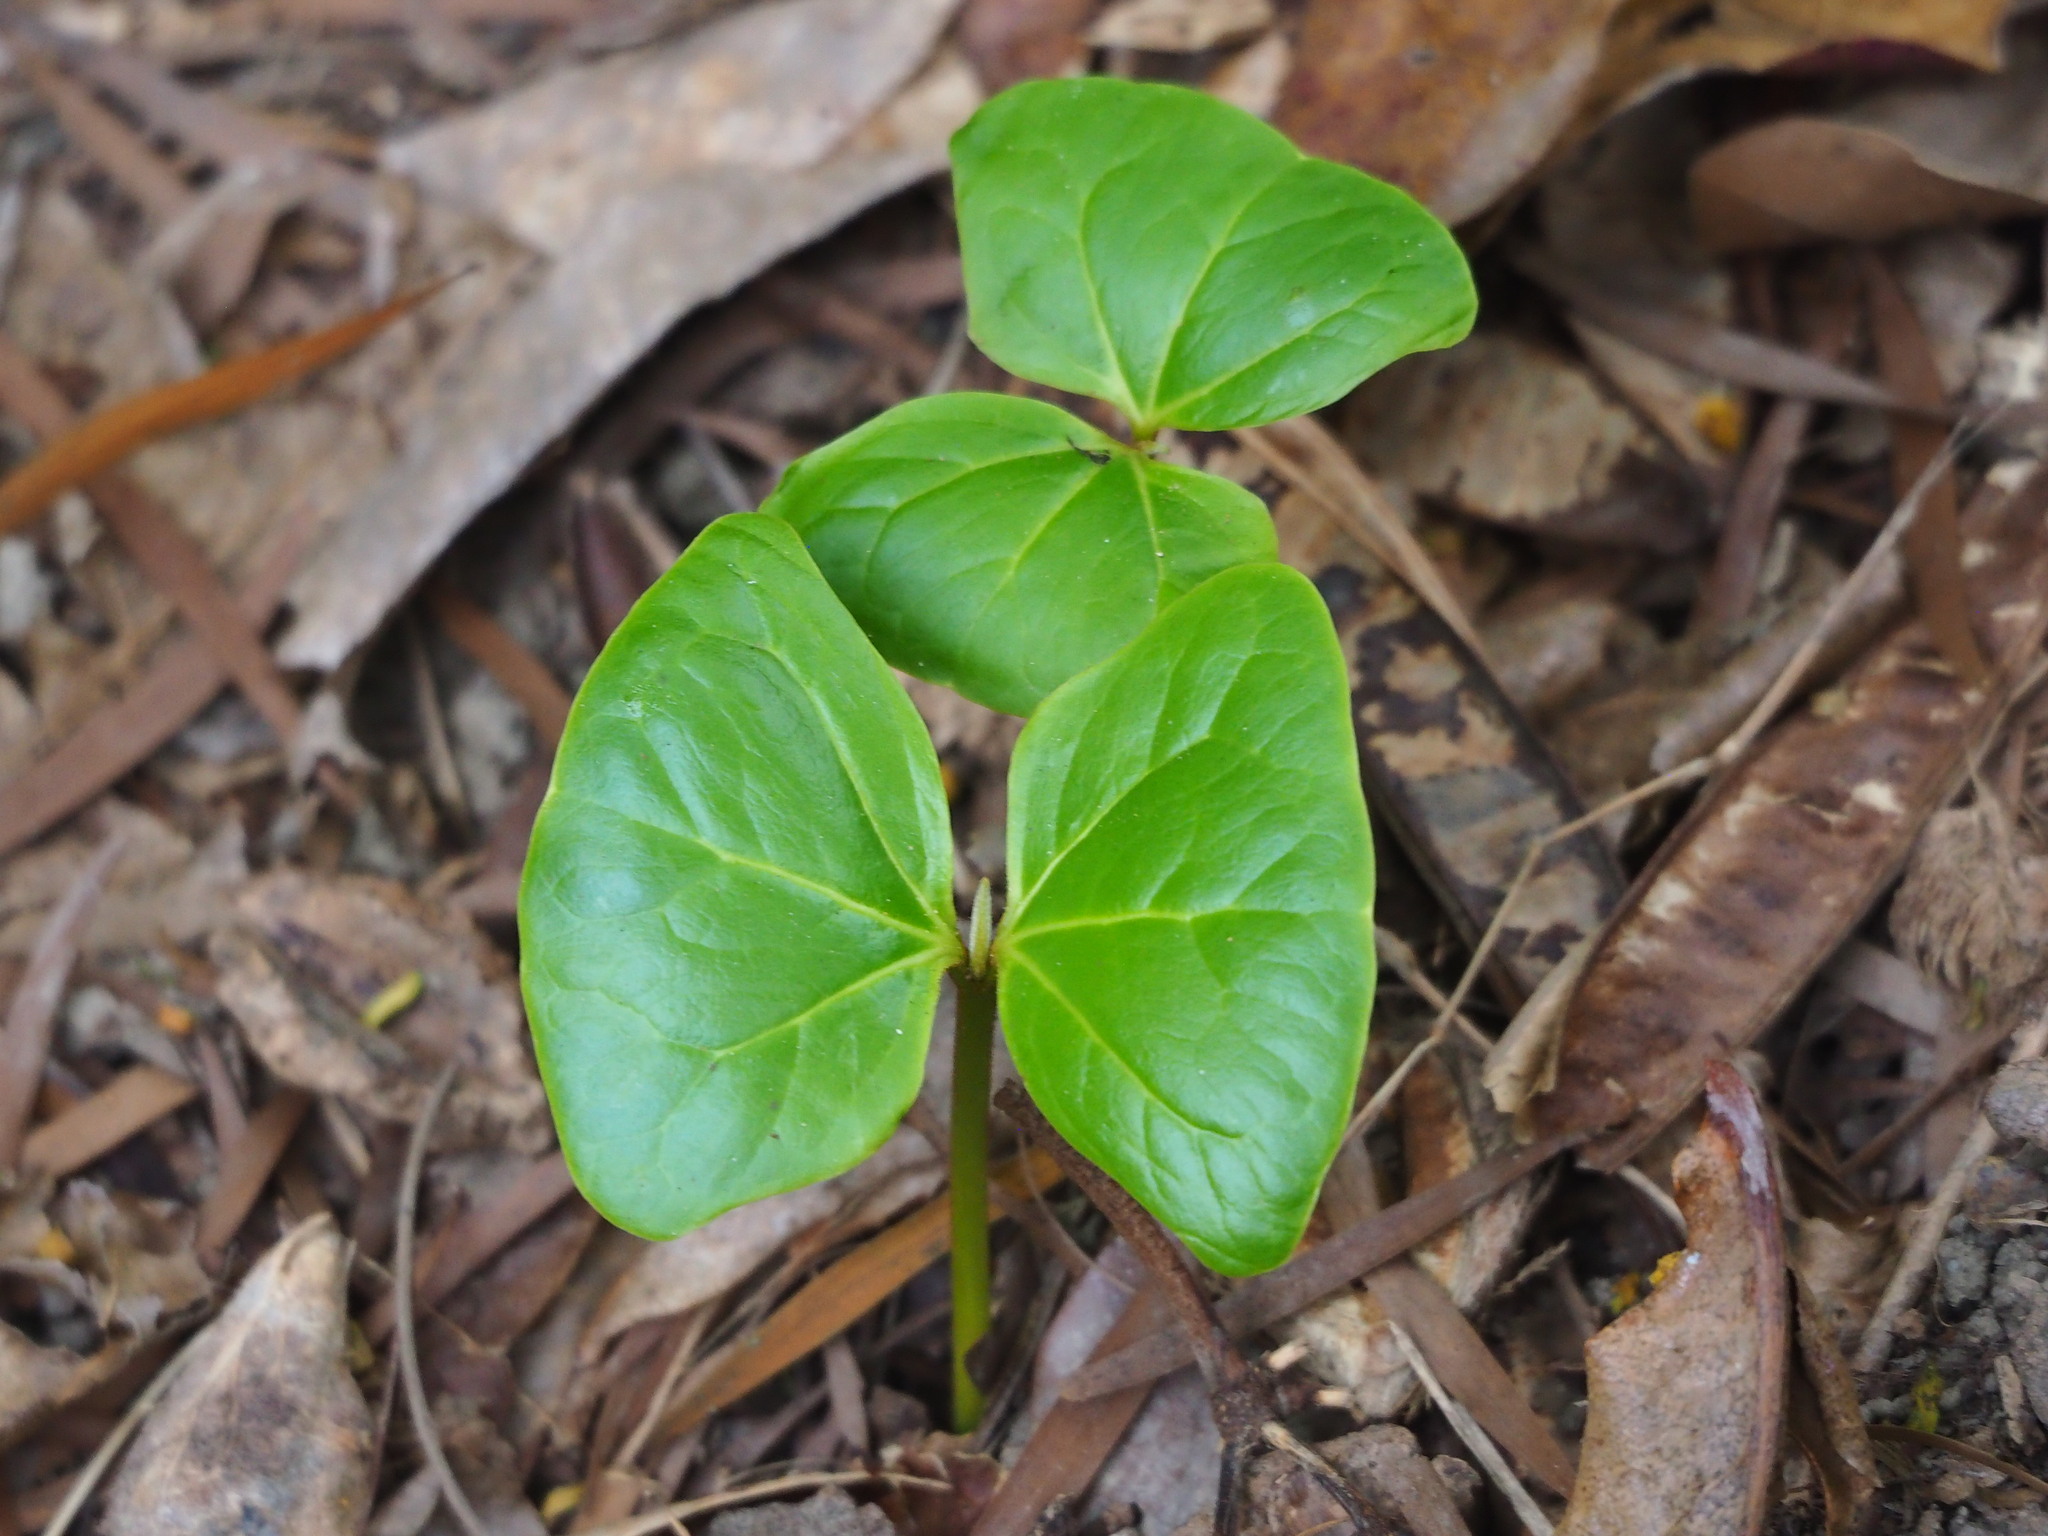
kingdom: Plantae
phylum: Tracheophyta
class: Magnoliopsida
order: Myrtales
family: Combretaceae
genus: Terminalia
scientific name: Terminalia catappa
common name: Tropical almond
